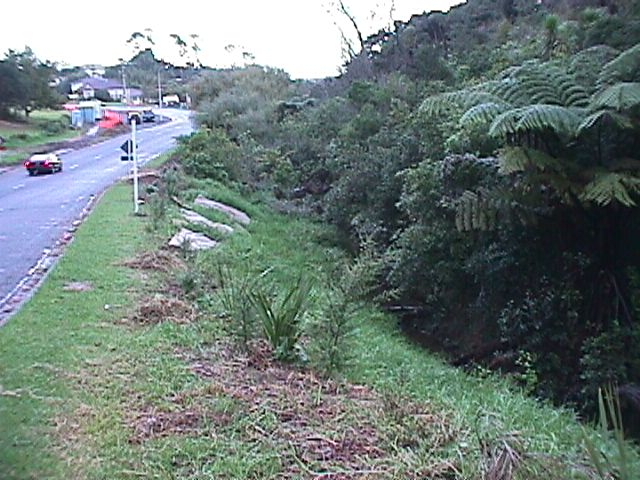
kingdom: Plantae
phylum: Tracheophyta
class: Liliopsida
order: Poales
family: Poaceae
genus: Cenchrus
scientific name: Cenchrus clandestinus
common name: Kikuyugrass
